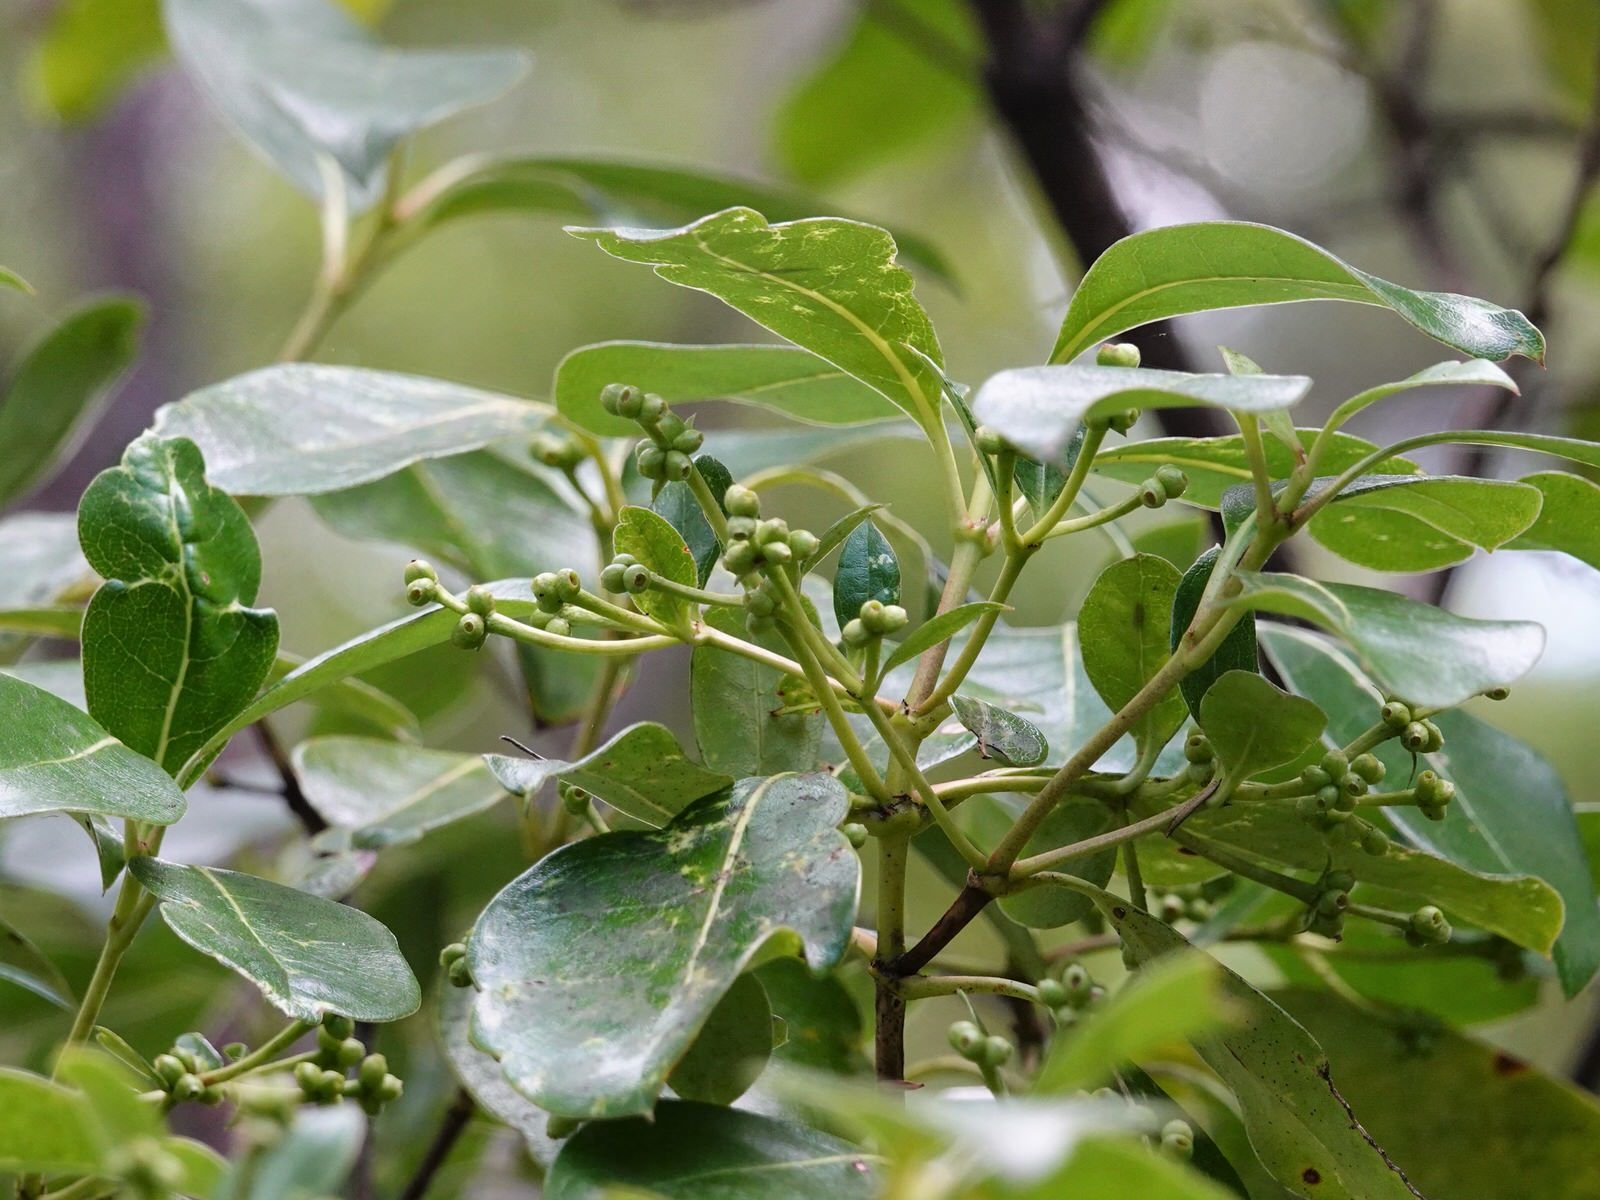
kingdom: Plantae
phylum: Tracheophyta
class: Magnoliopsida
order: Gentianales
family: Rubiaceae
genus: Coprosma
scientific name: Coprosma lucida
